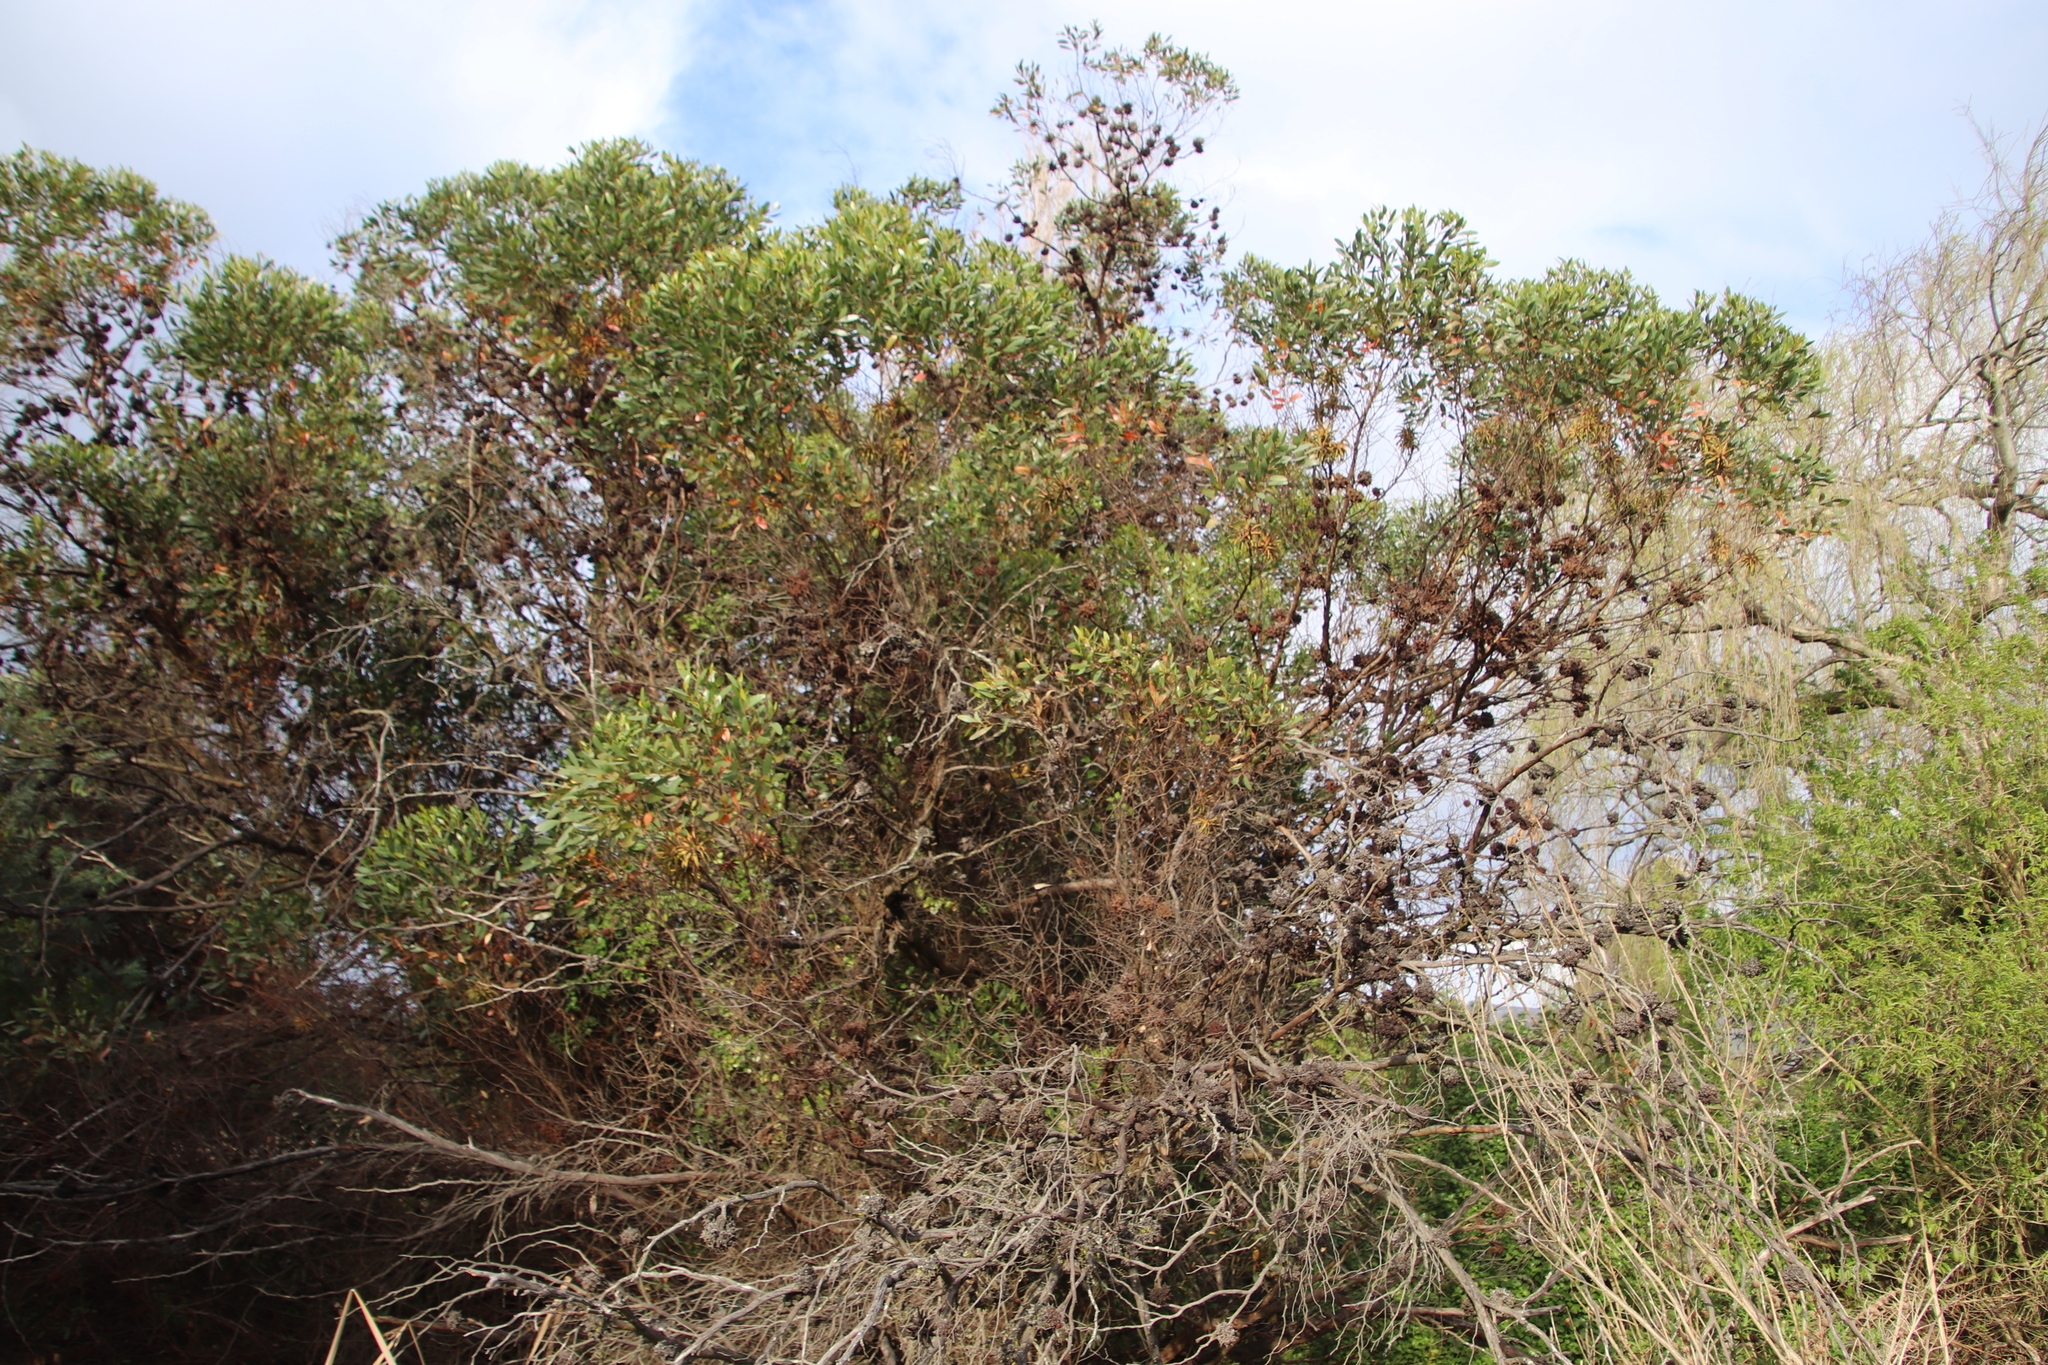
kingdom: Plantae
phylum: Tracheophyta
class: Magnoliopsida
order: Myrtales
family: Myrtaceae
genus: Eucalyptus
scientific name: Eucalyptus conferruminata
